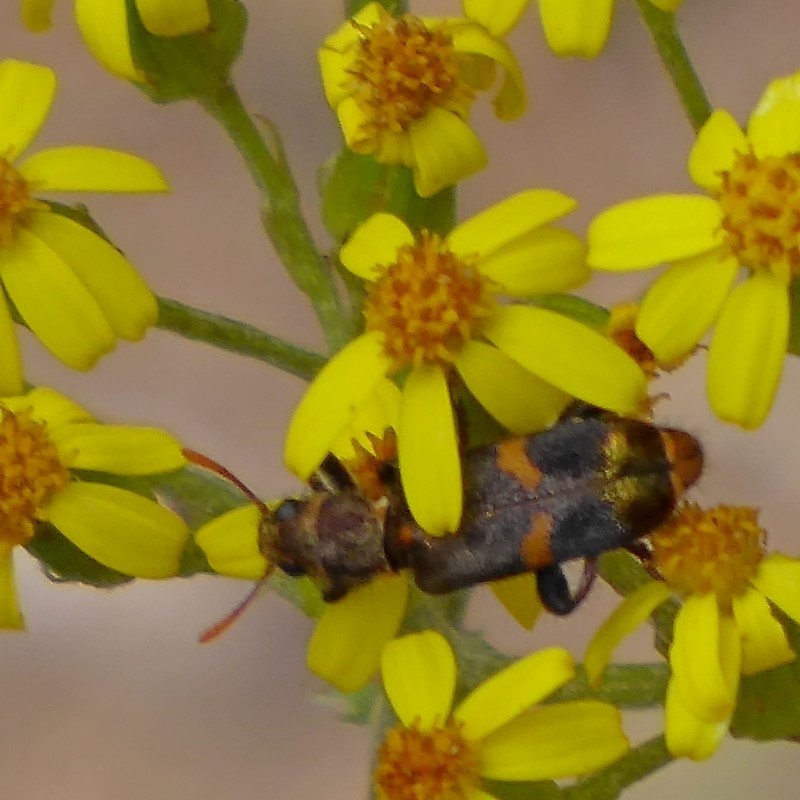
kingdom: Animalia
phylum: Arthropoda
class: Insecta
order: Coleoptera
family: Cleridae
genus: Eleale
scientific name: Eleale
